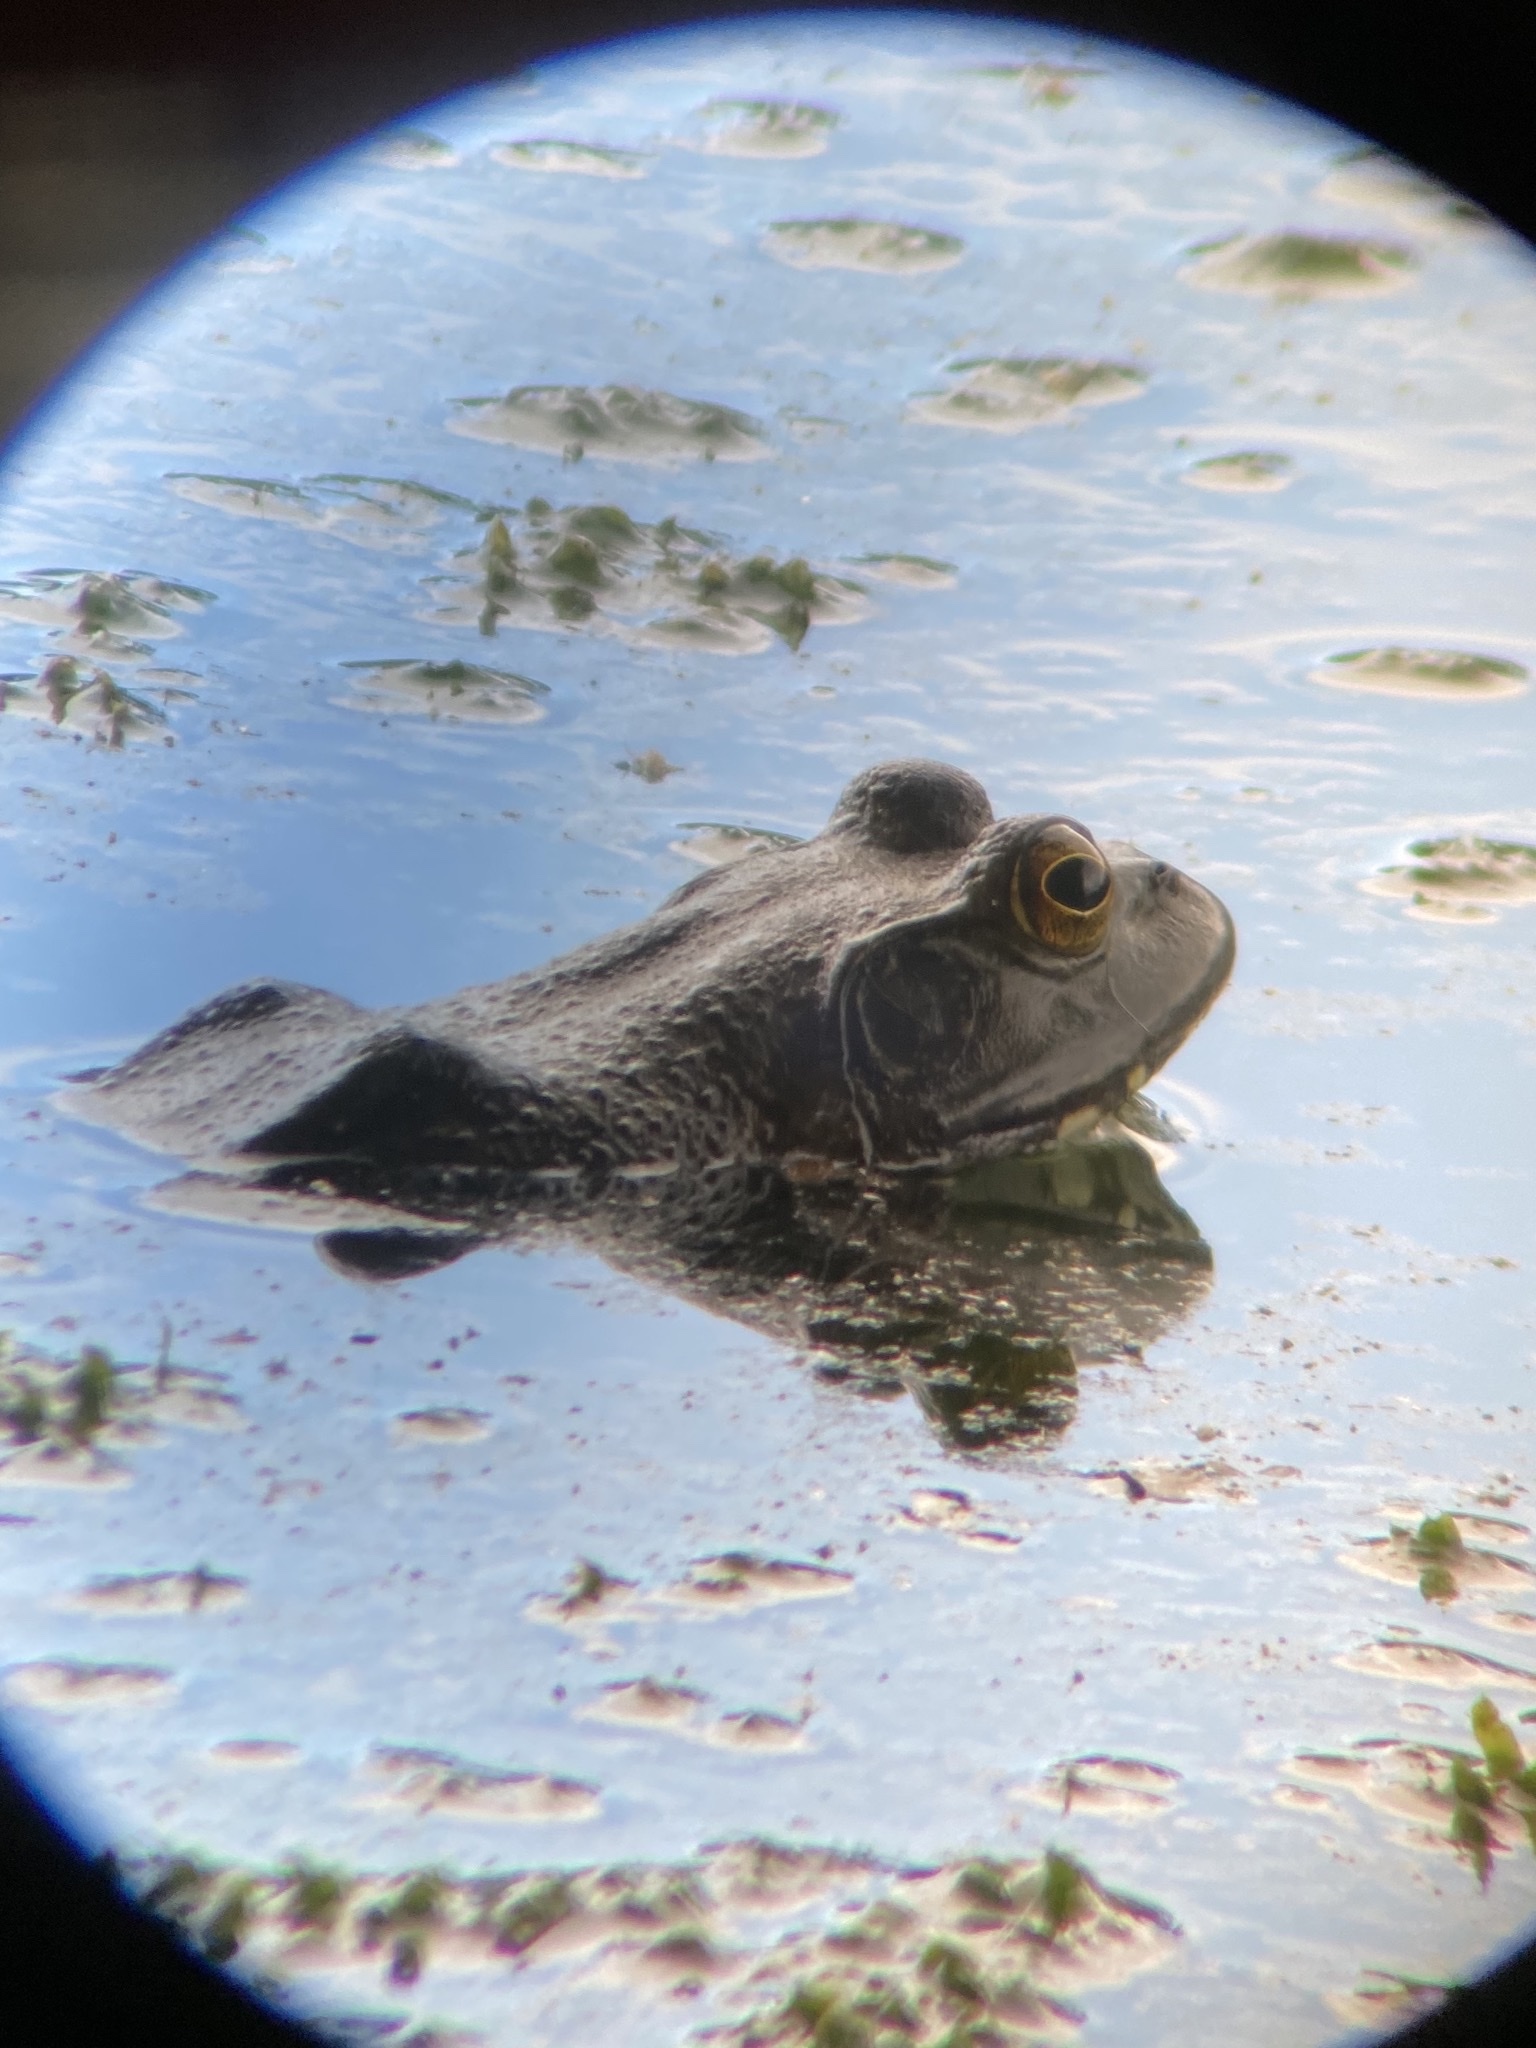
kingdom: Animalia
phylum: Chordata
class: Amphibia
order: Anura
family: Ranidae
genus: Lithobates
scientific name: Lithobates catesbeianus
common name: American bullfrog
